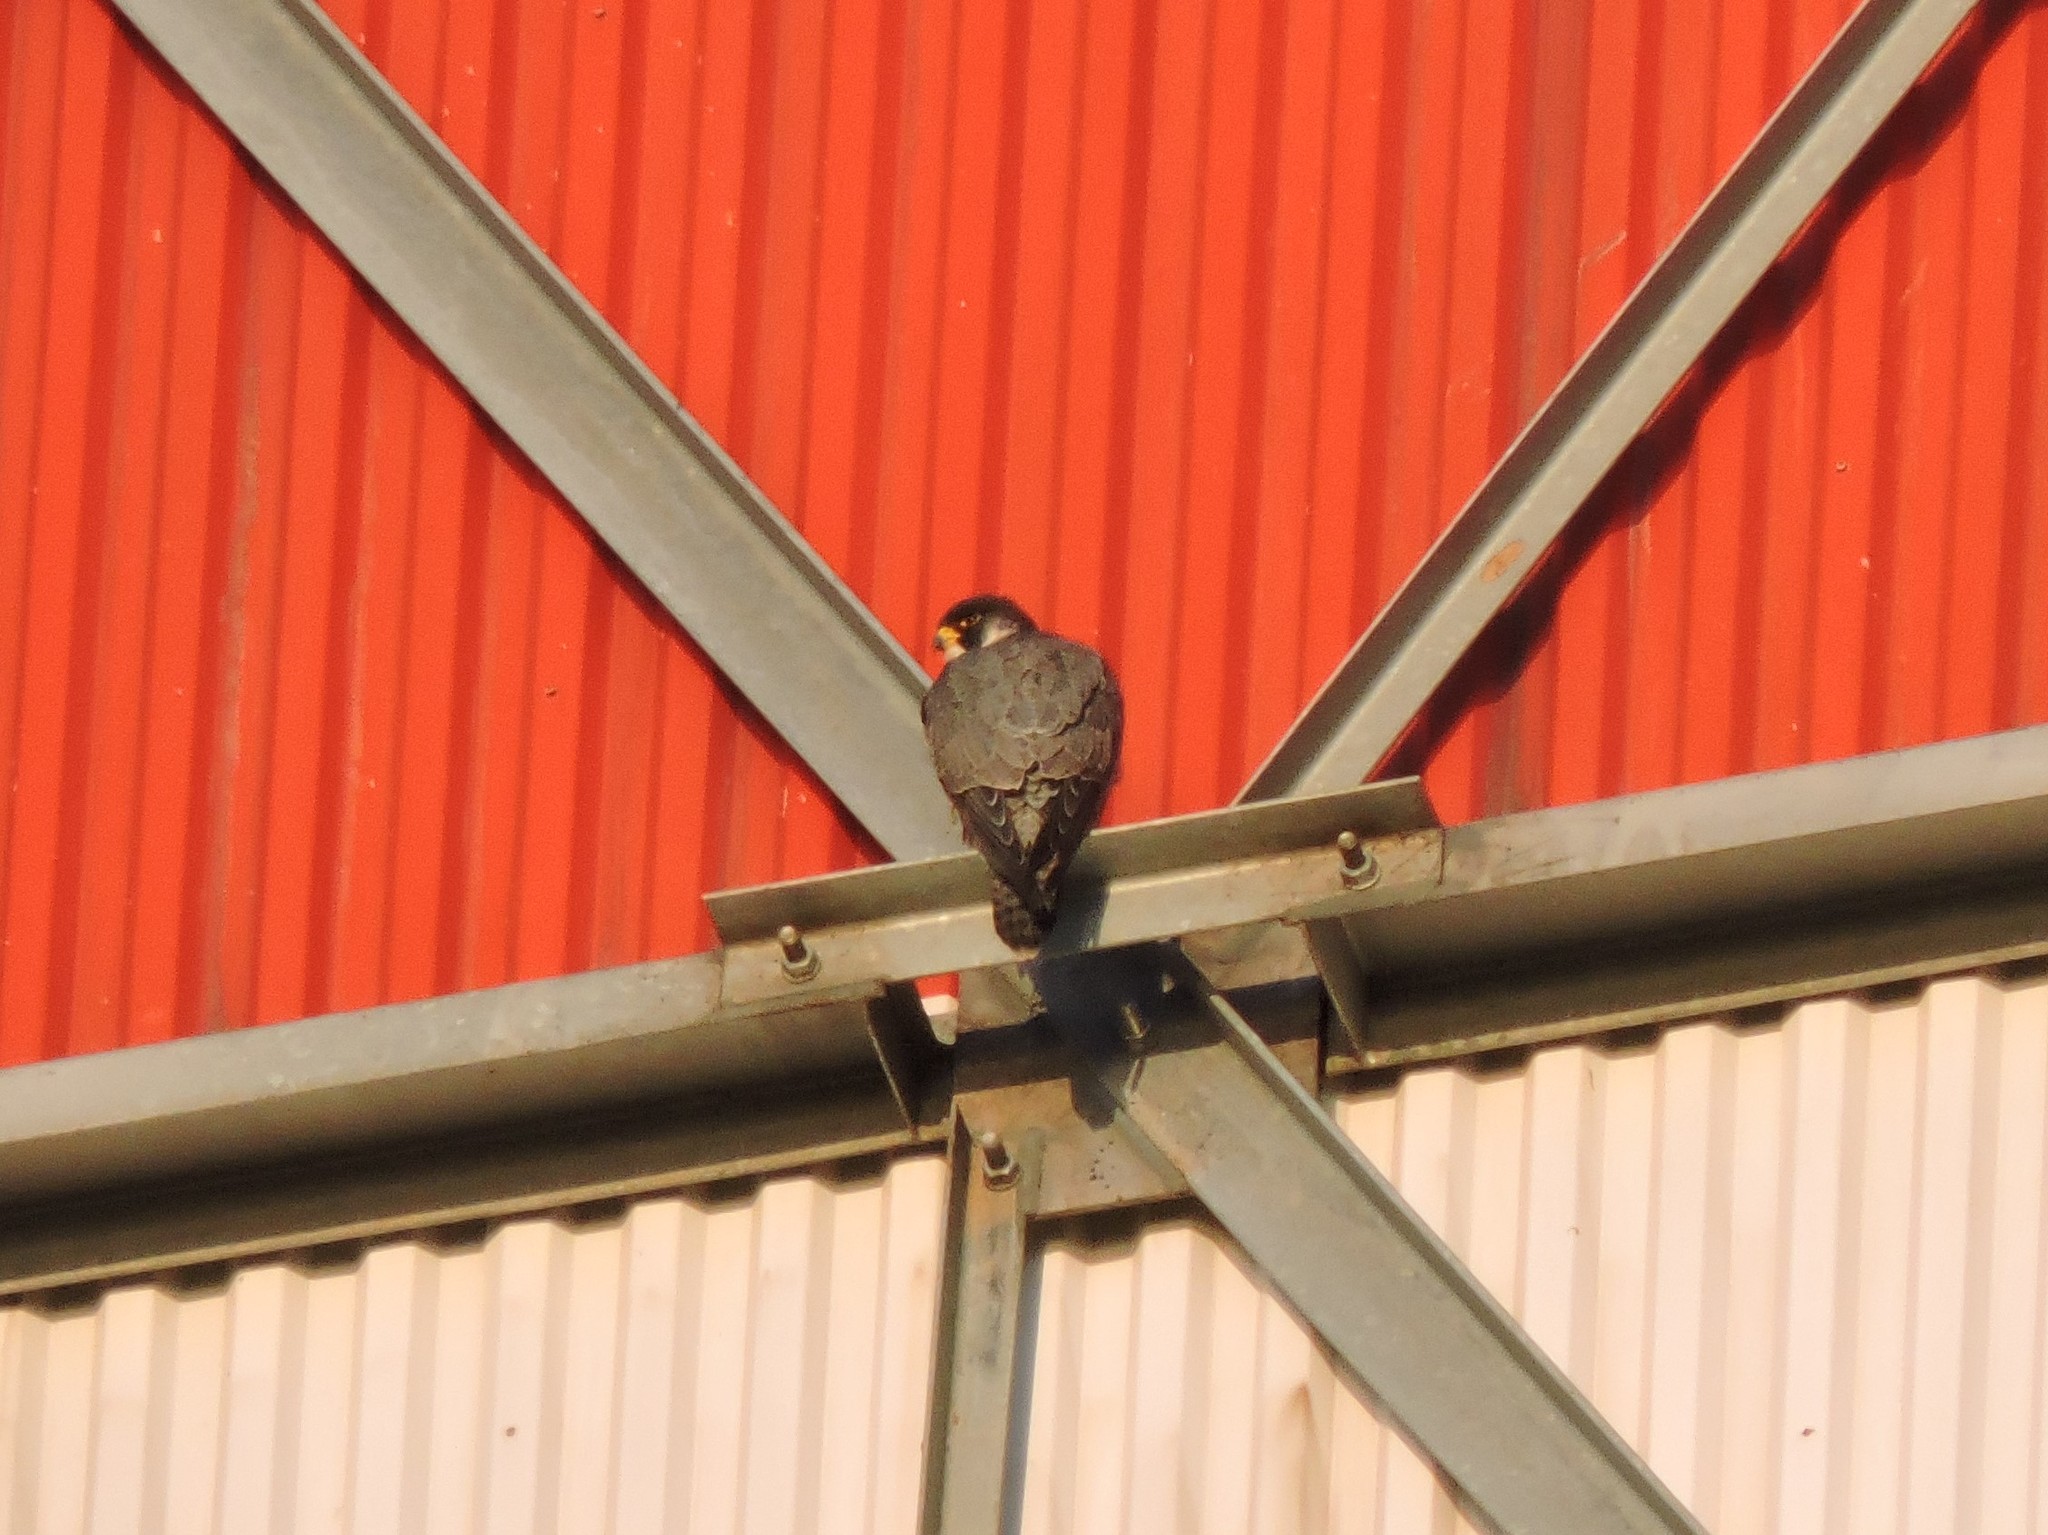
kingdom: Animalia
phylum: Chordata
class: Aves
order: Falconiformes
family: Falconidae
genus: Falco
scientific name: Falco peregrinus
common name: Peregrine falcon
